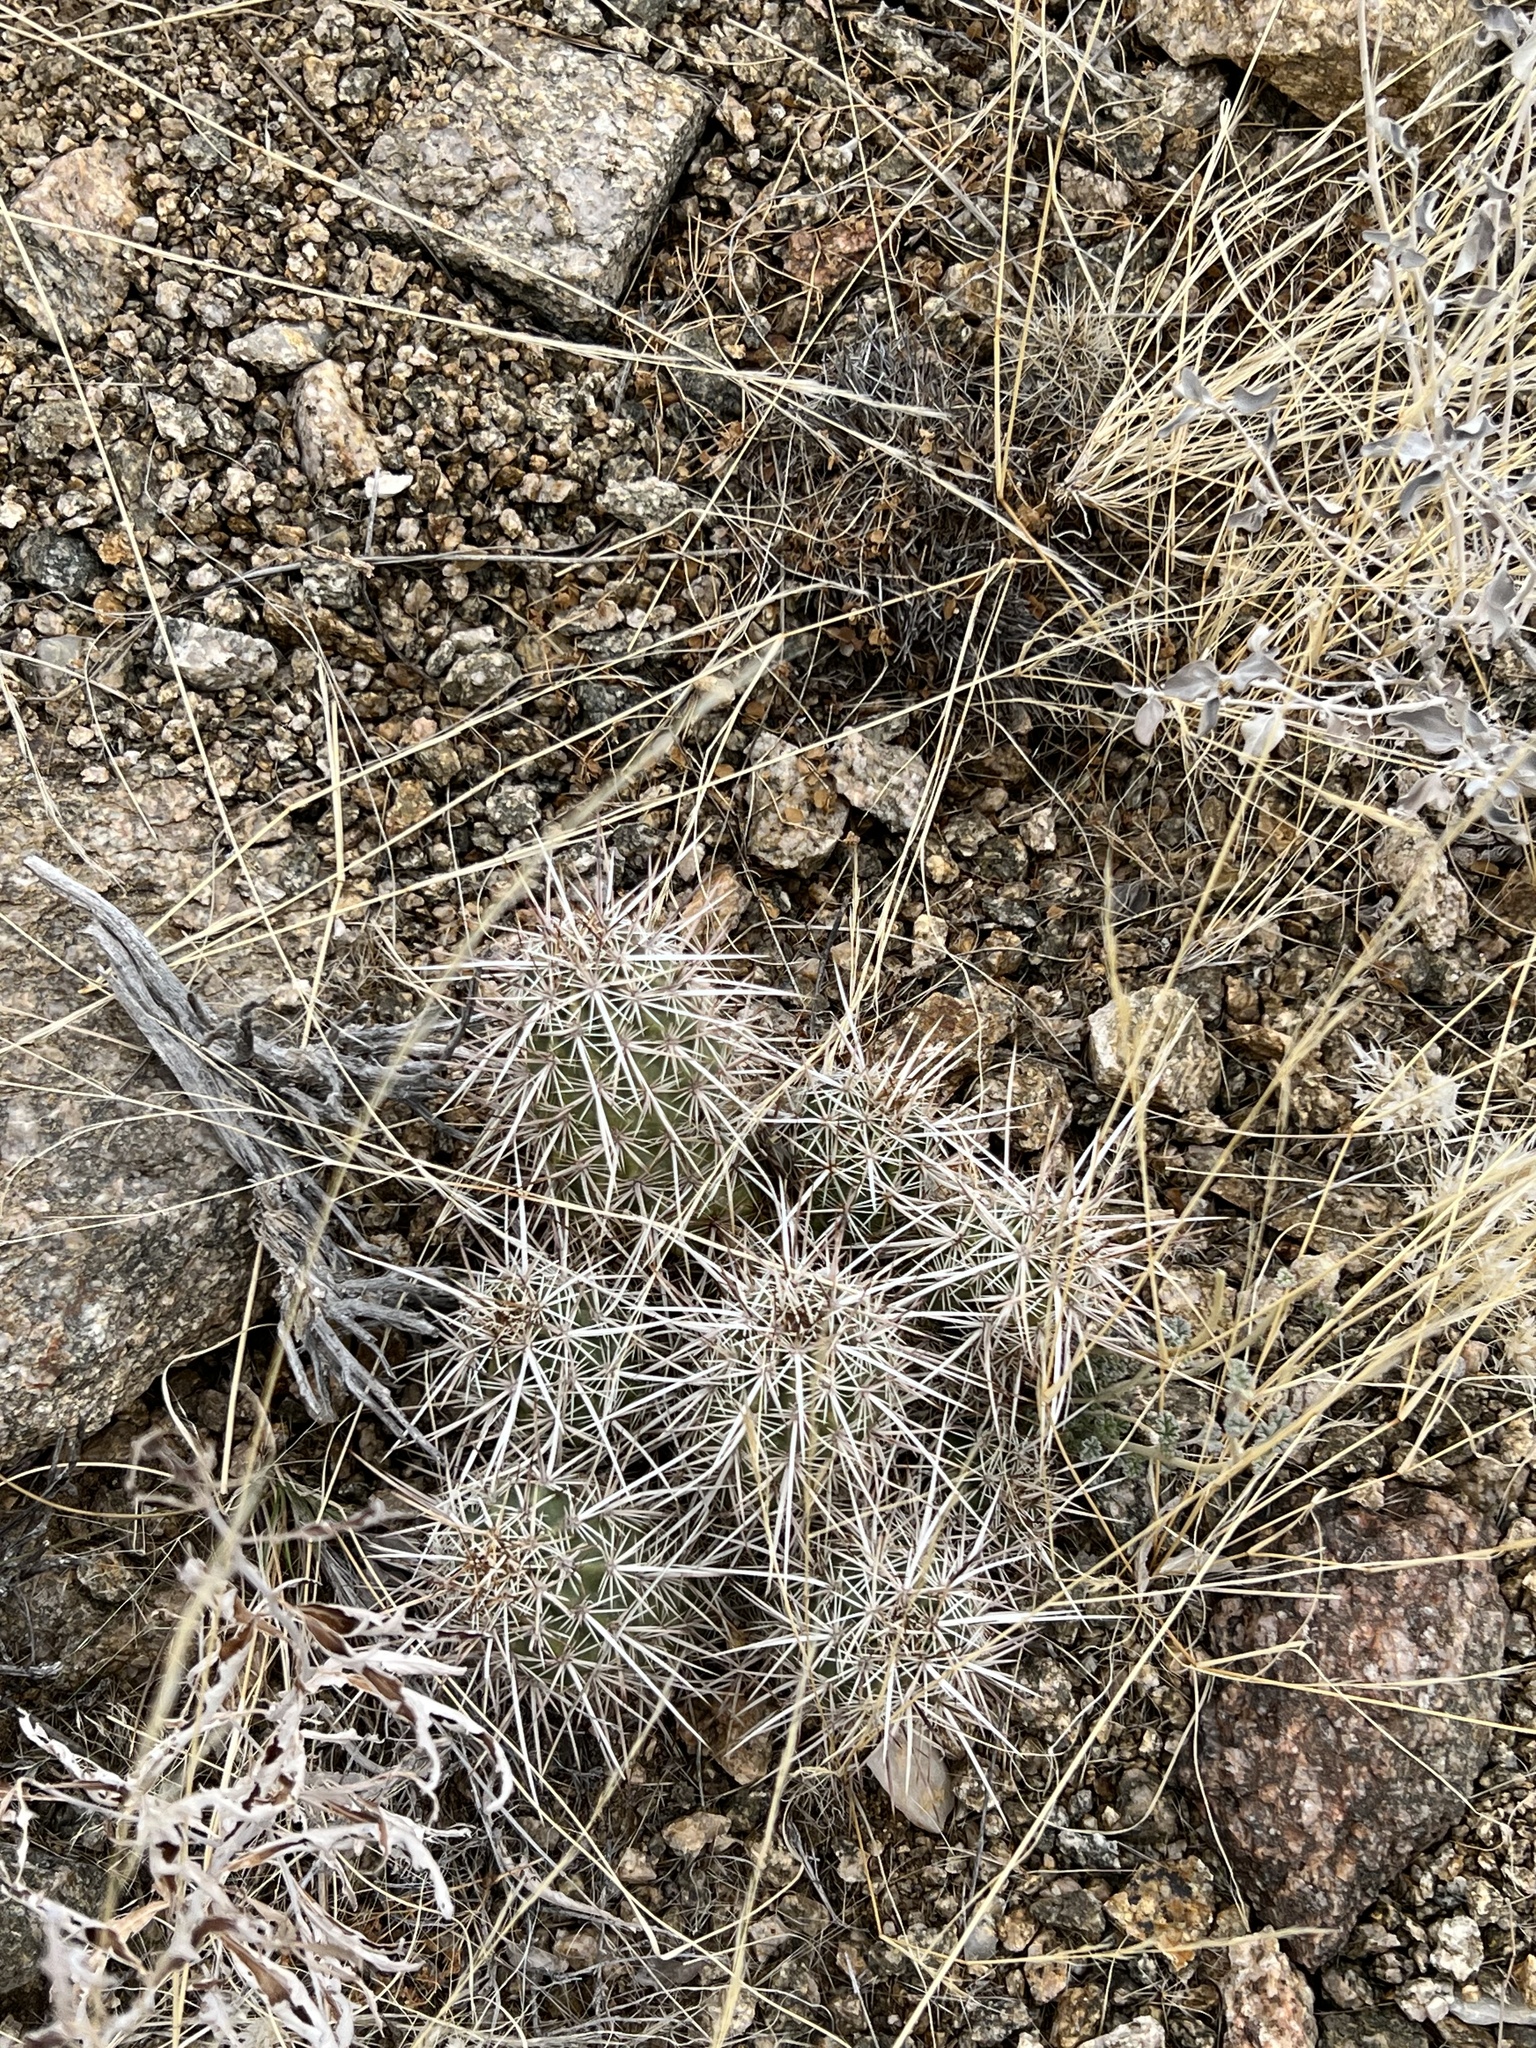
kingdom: Plantae
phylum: Tracheophyta
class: Magnoliopsida
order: Caryophyllales
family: Cactaceae
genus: Echinocereus
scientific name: Echinocereus engelmannii
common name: Engelmann's hedgehog cactus
